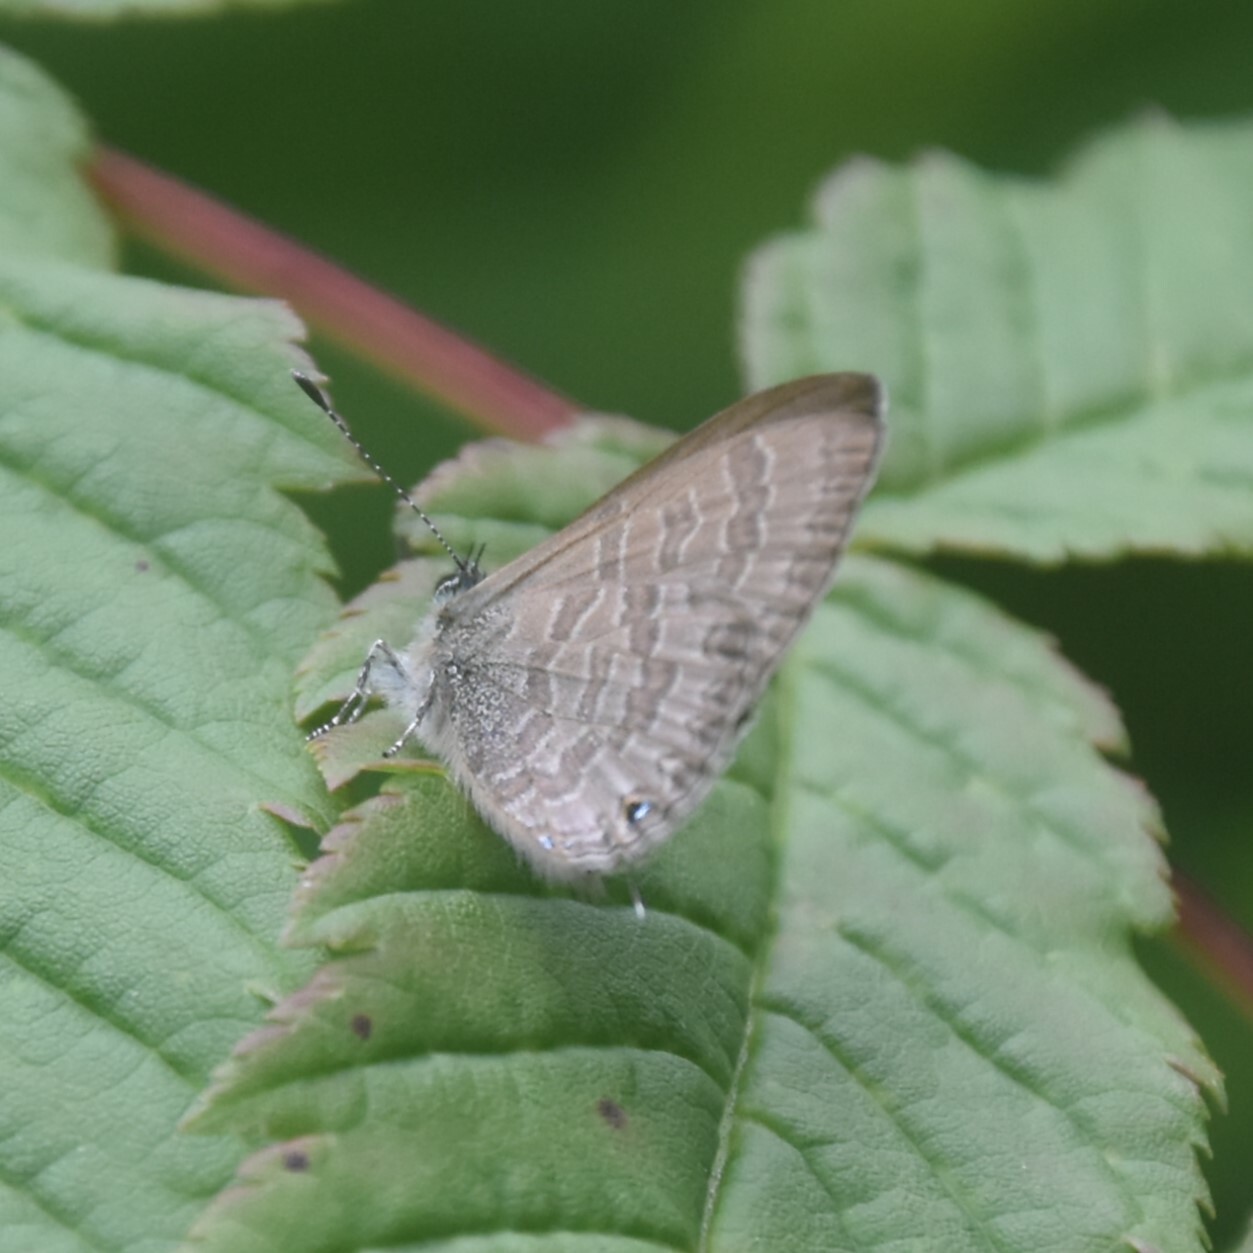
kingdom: Animalia
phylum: Arthropoda
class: Insecta
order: Lepidoptera
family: Lycaenidae
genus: Prosotas
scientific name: Prosotas nora
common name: Common line blue
